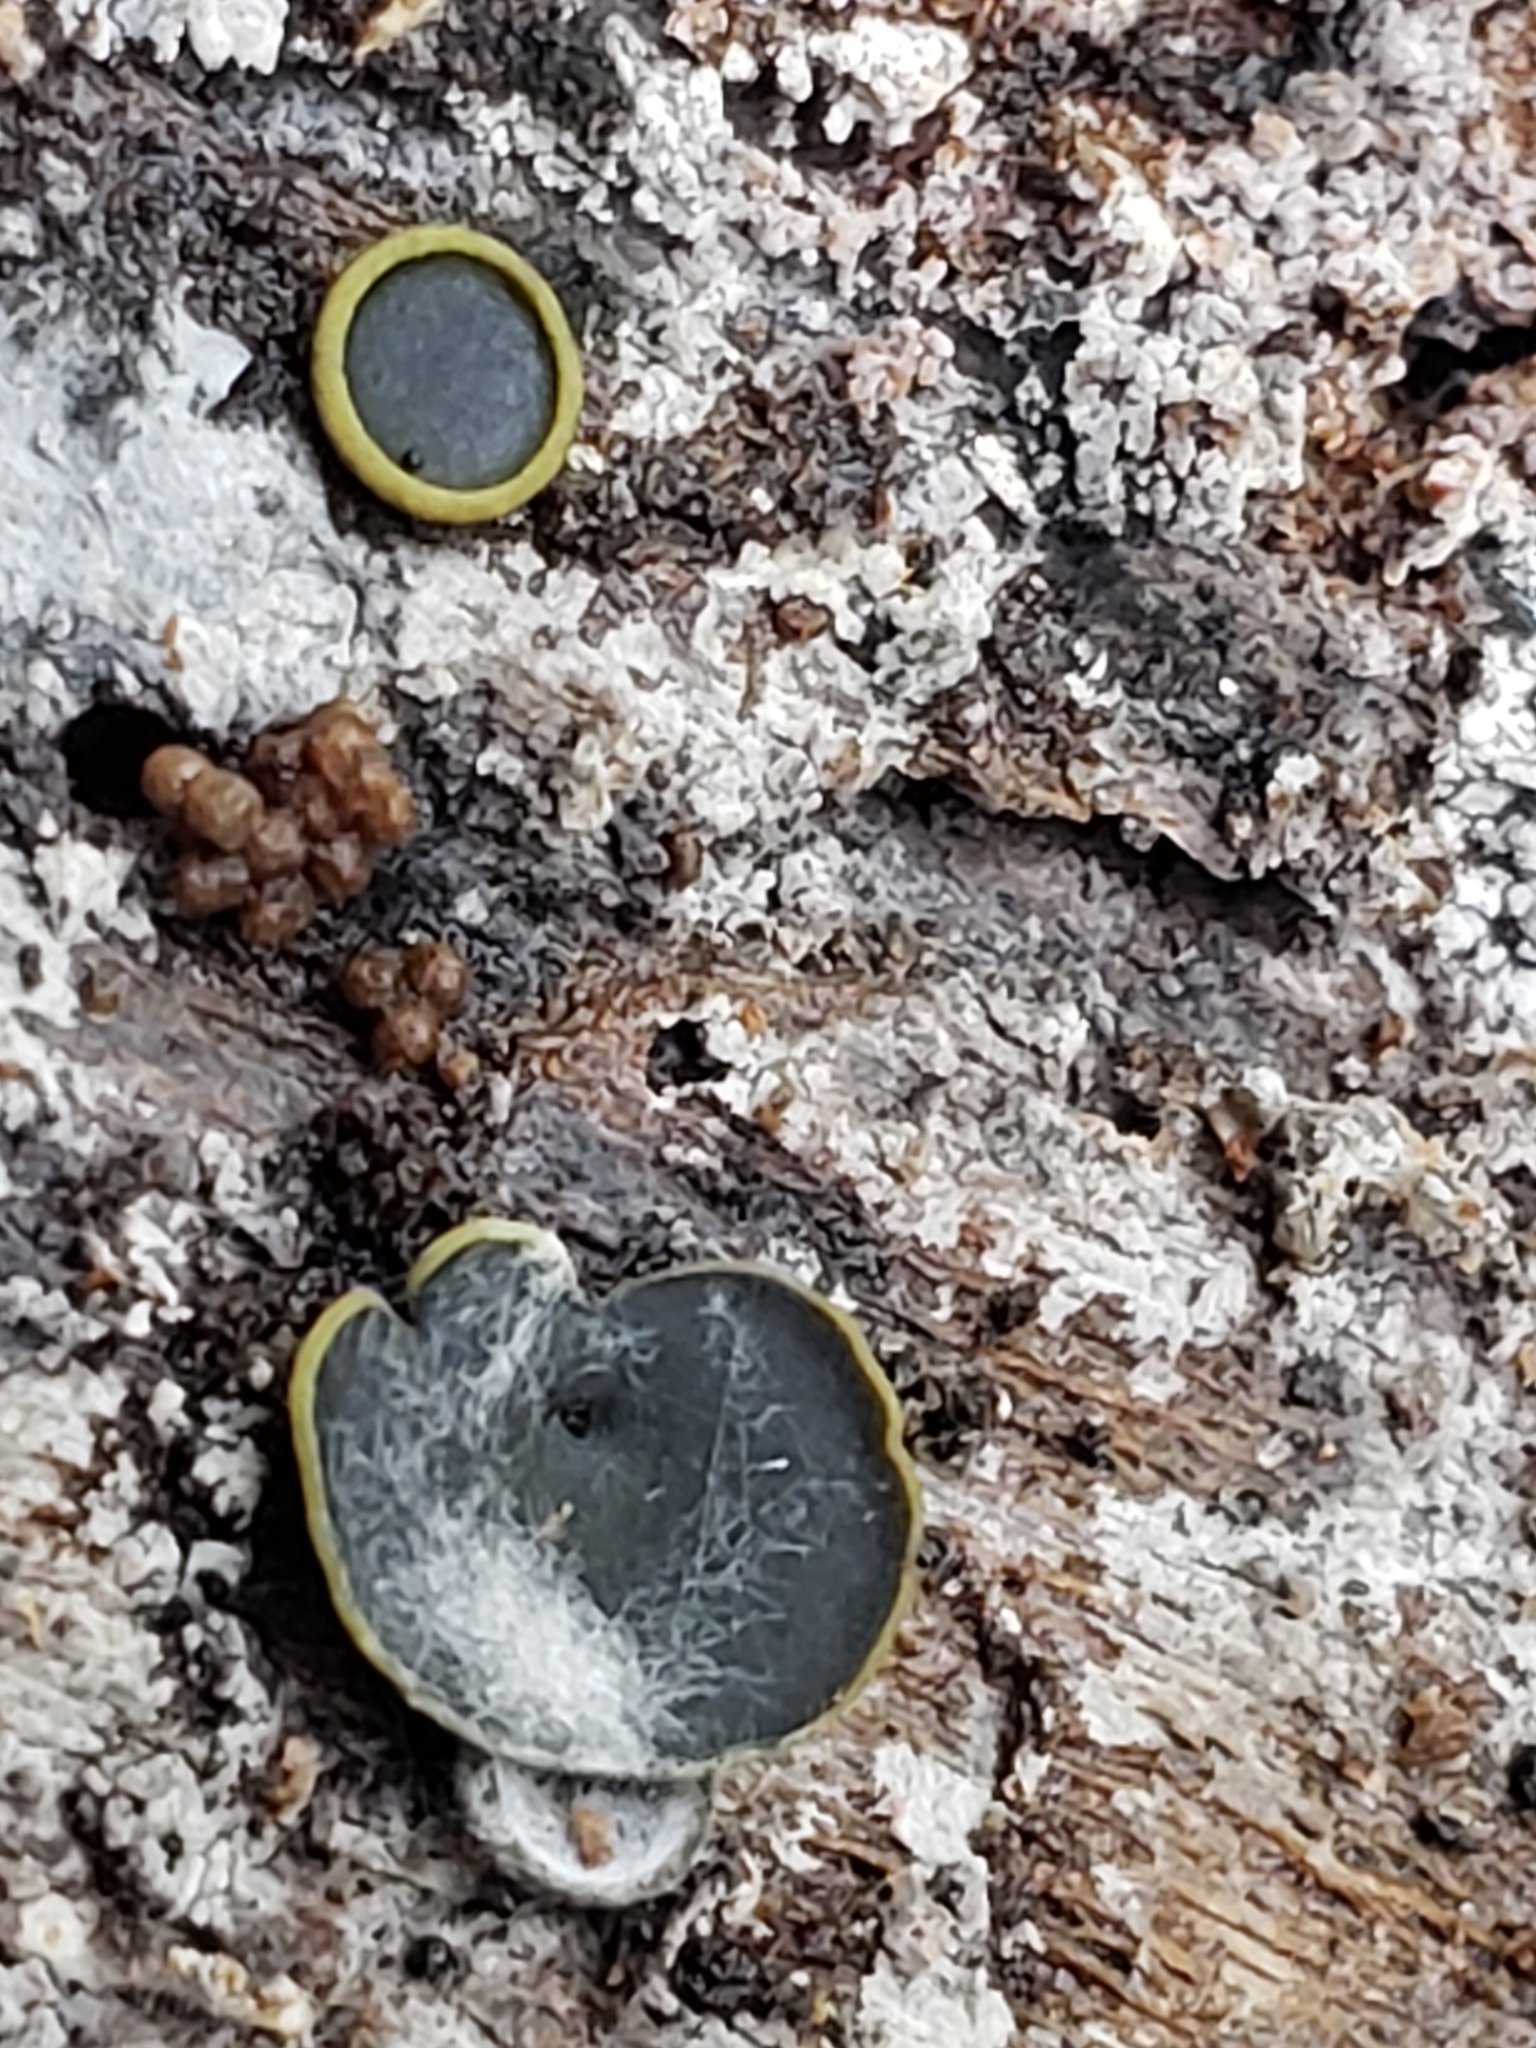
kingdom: Fungi
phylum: Ascomycota
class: Dothideomycetes
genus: Catinella
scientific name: Catinella olivacea
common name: Olive salver
